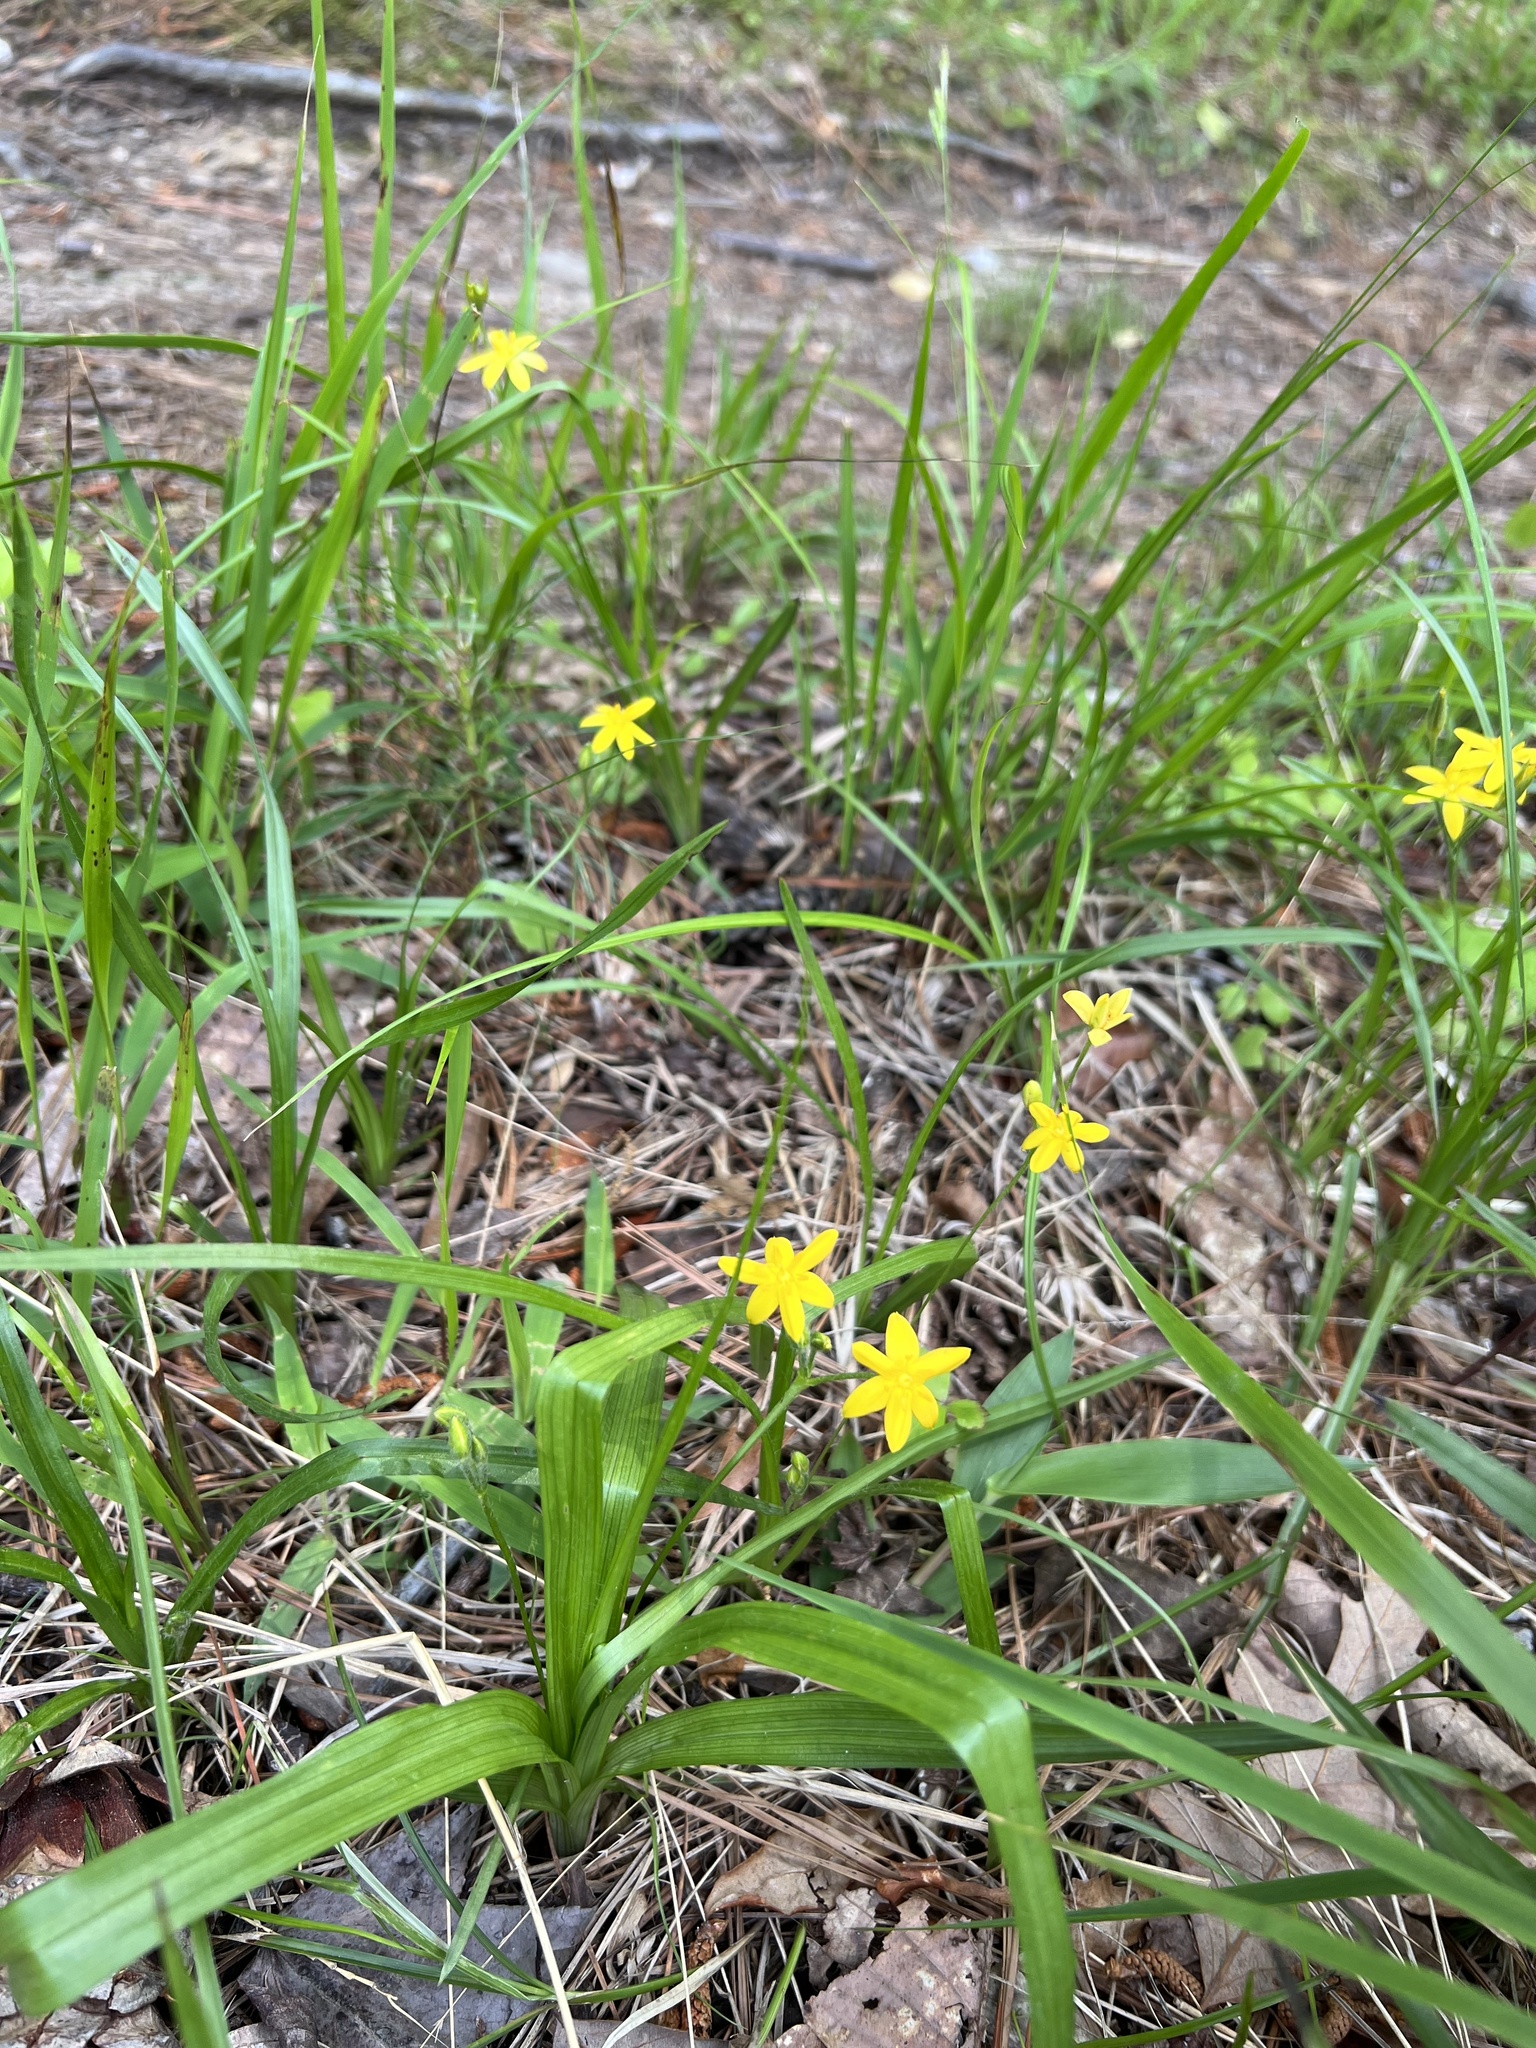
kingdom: Plantae
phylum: Tracheophyta
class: Liliopsida
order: Asparagales
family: Hypoxidaceae
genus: Hypoxis
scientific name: Hypoxis hirsuta
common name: Common goldstar
